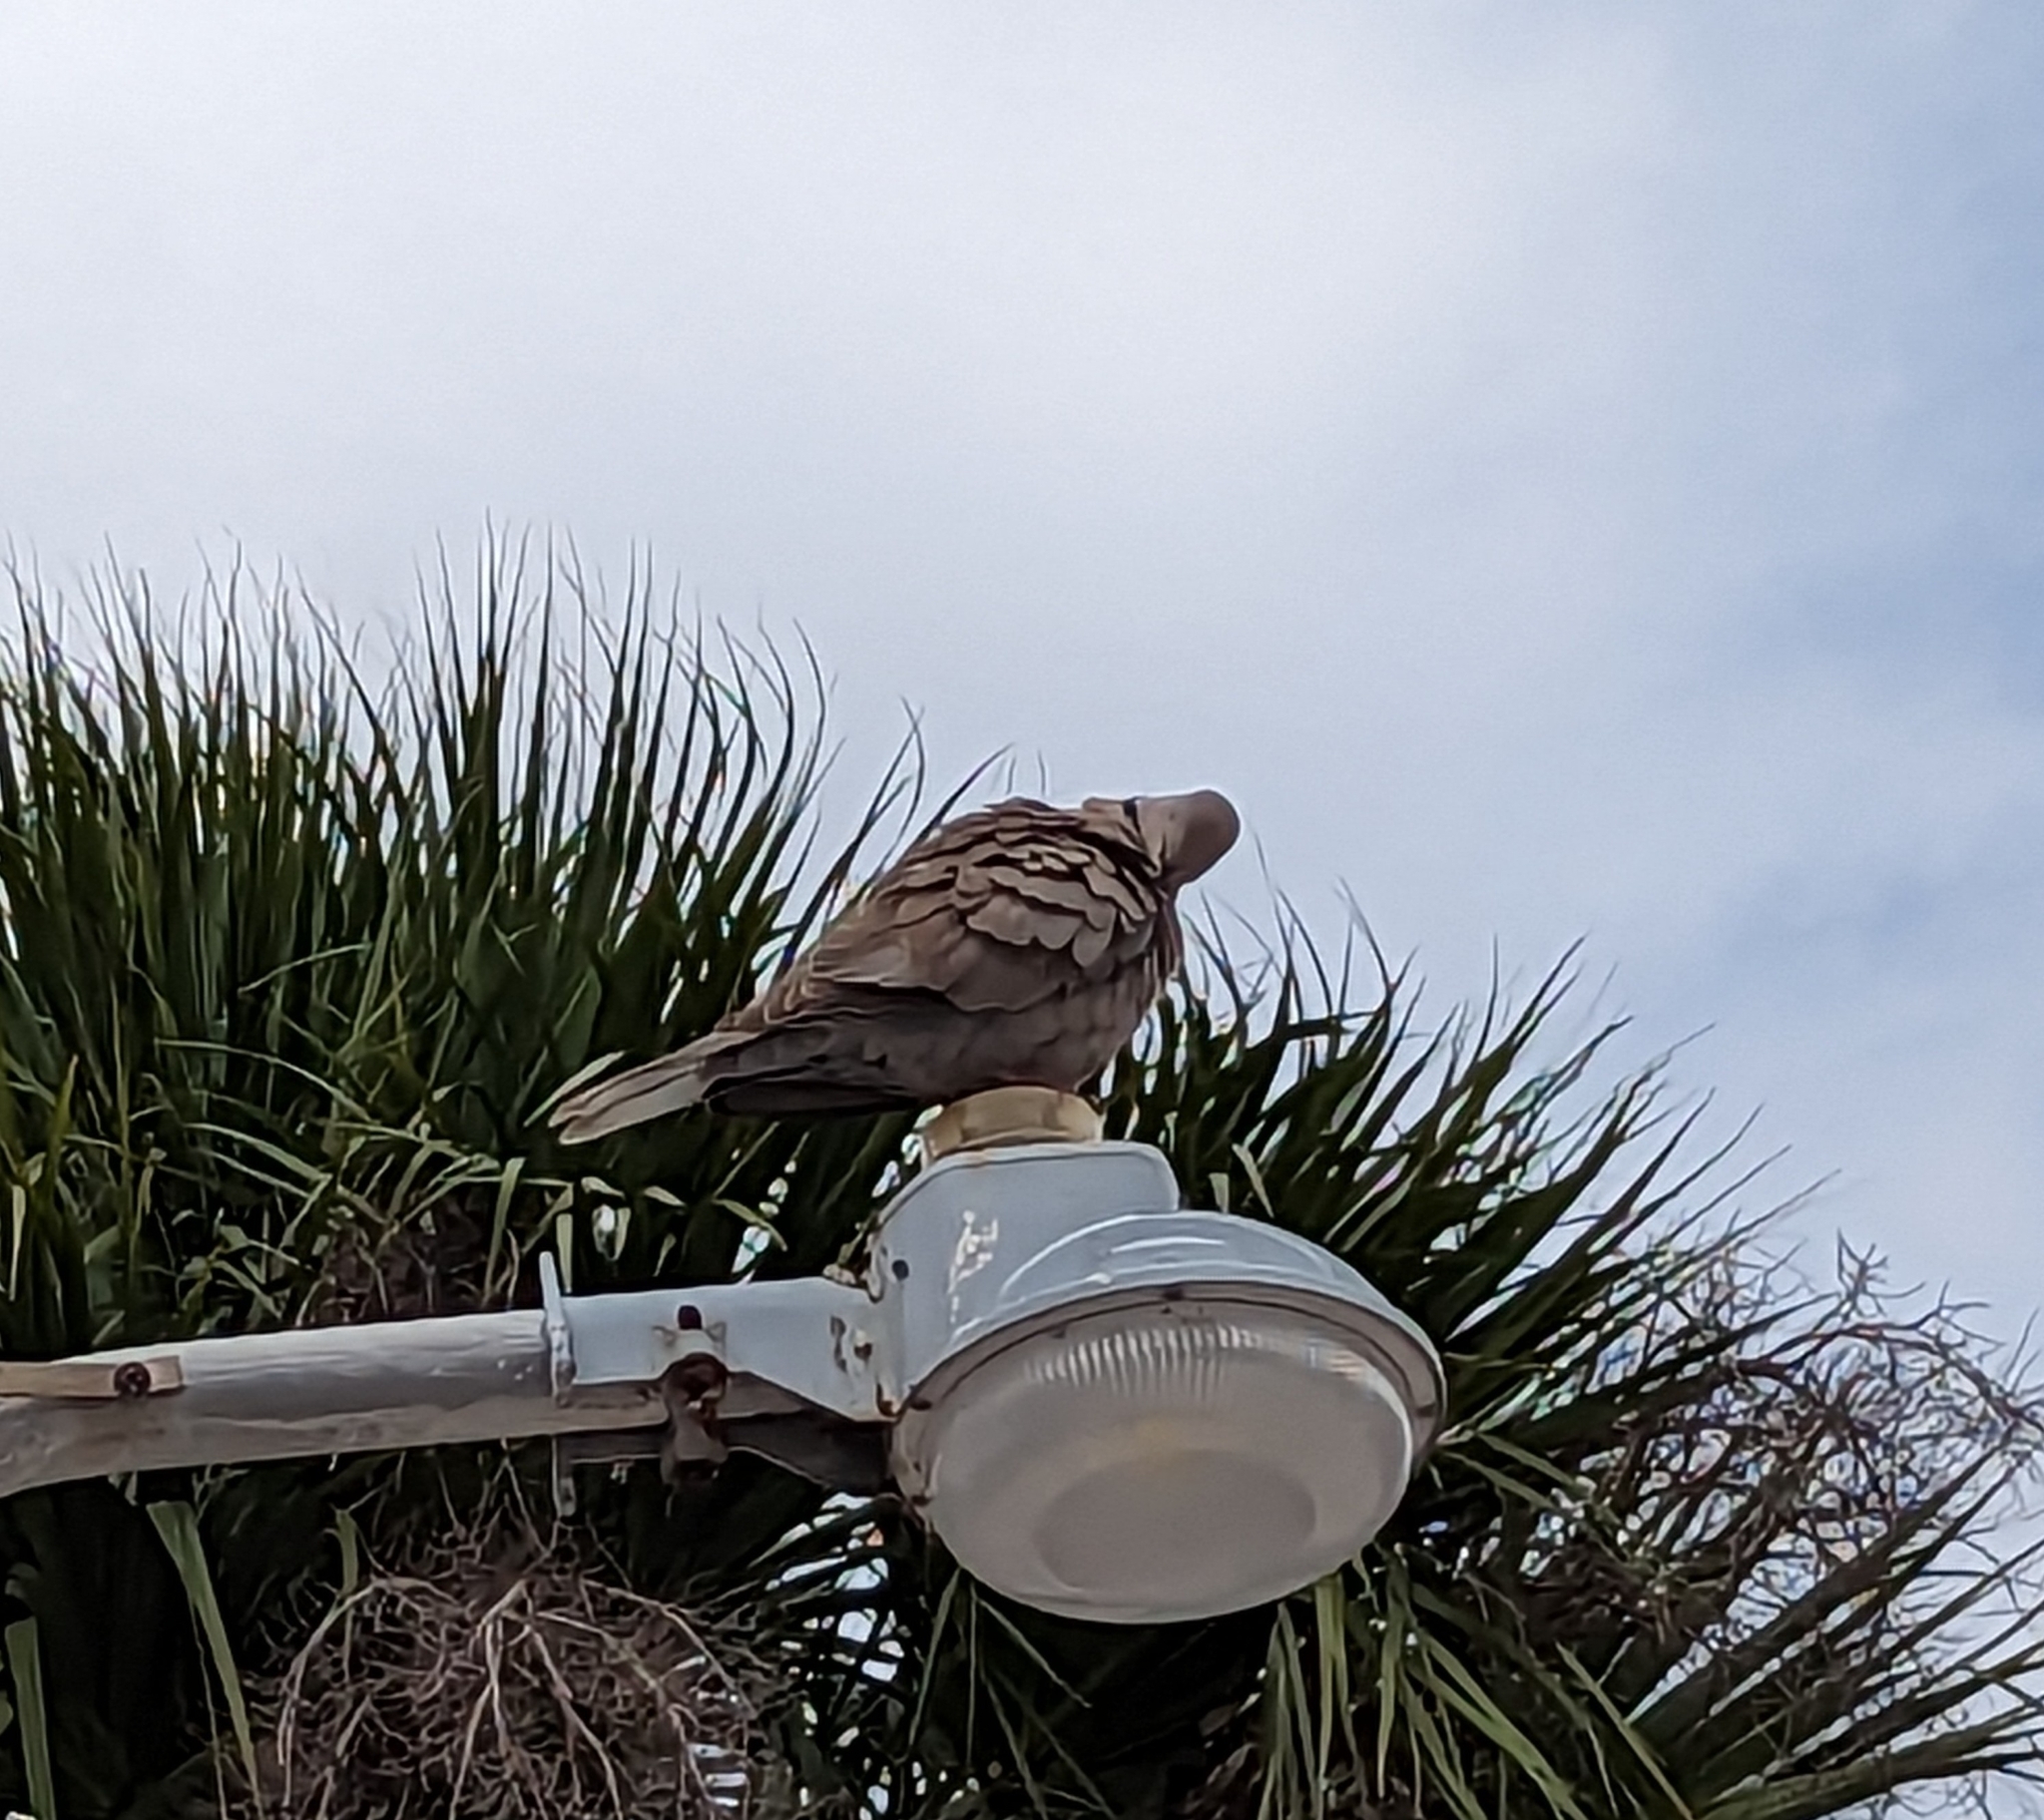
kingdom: Animalia
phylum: Chordata
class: Aves
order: Columbiformes
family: Columbidae
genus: Streptopelia
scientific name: Streptopelia decaocto
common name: Eurasian collared dove
